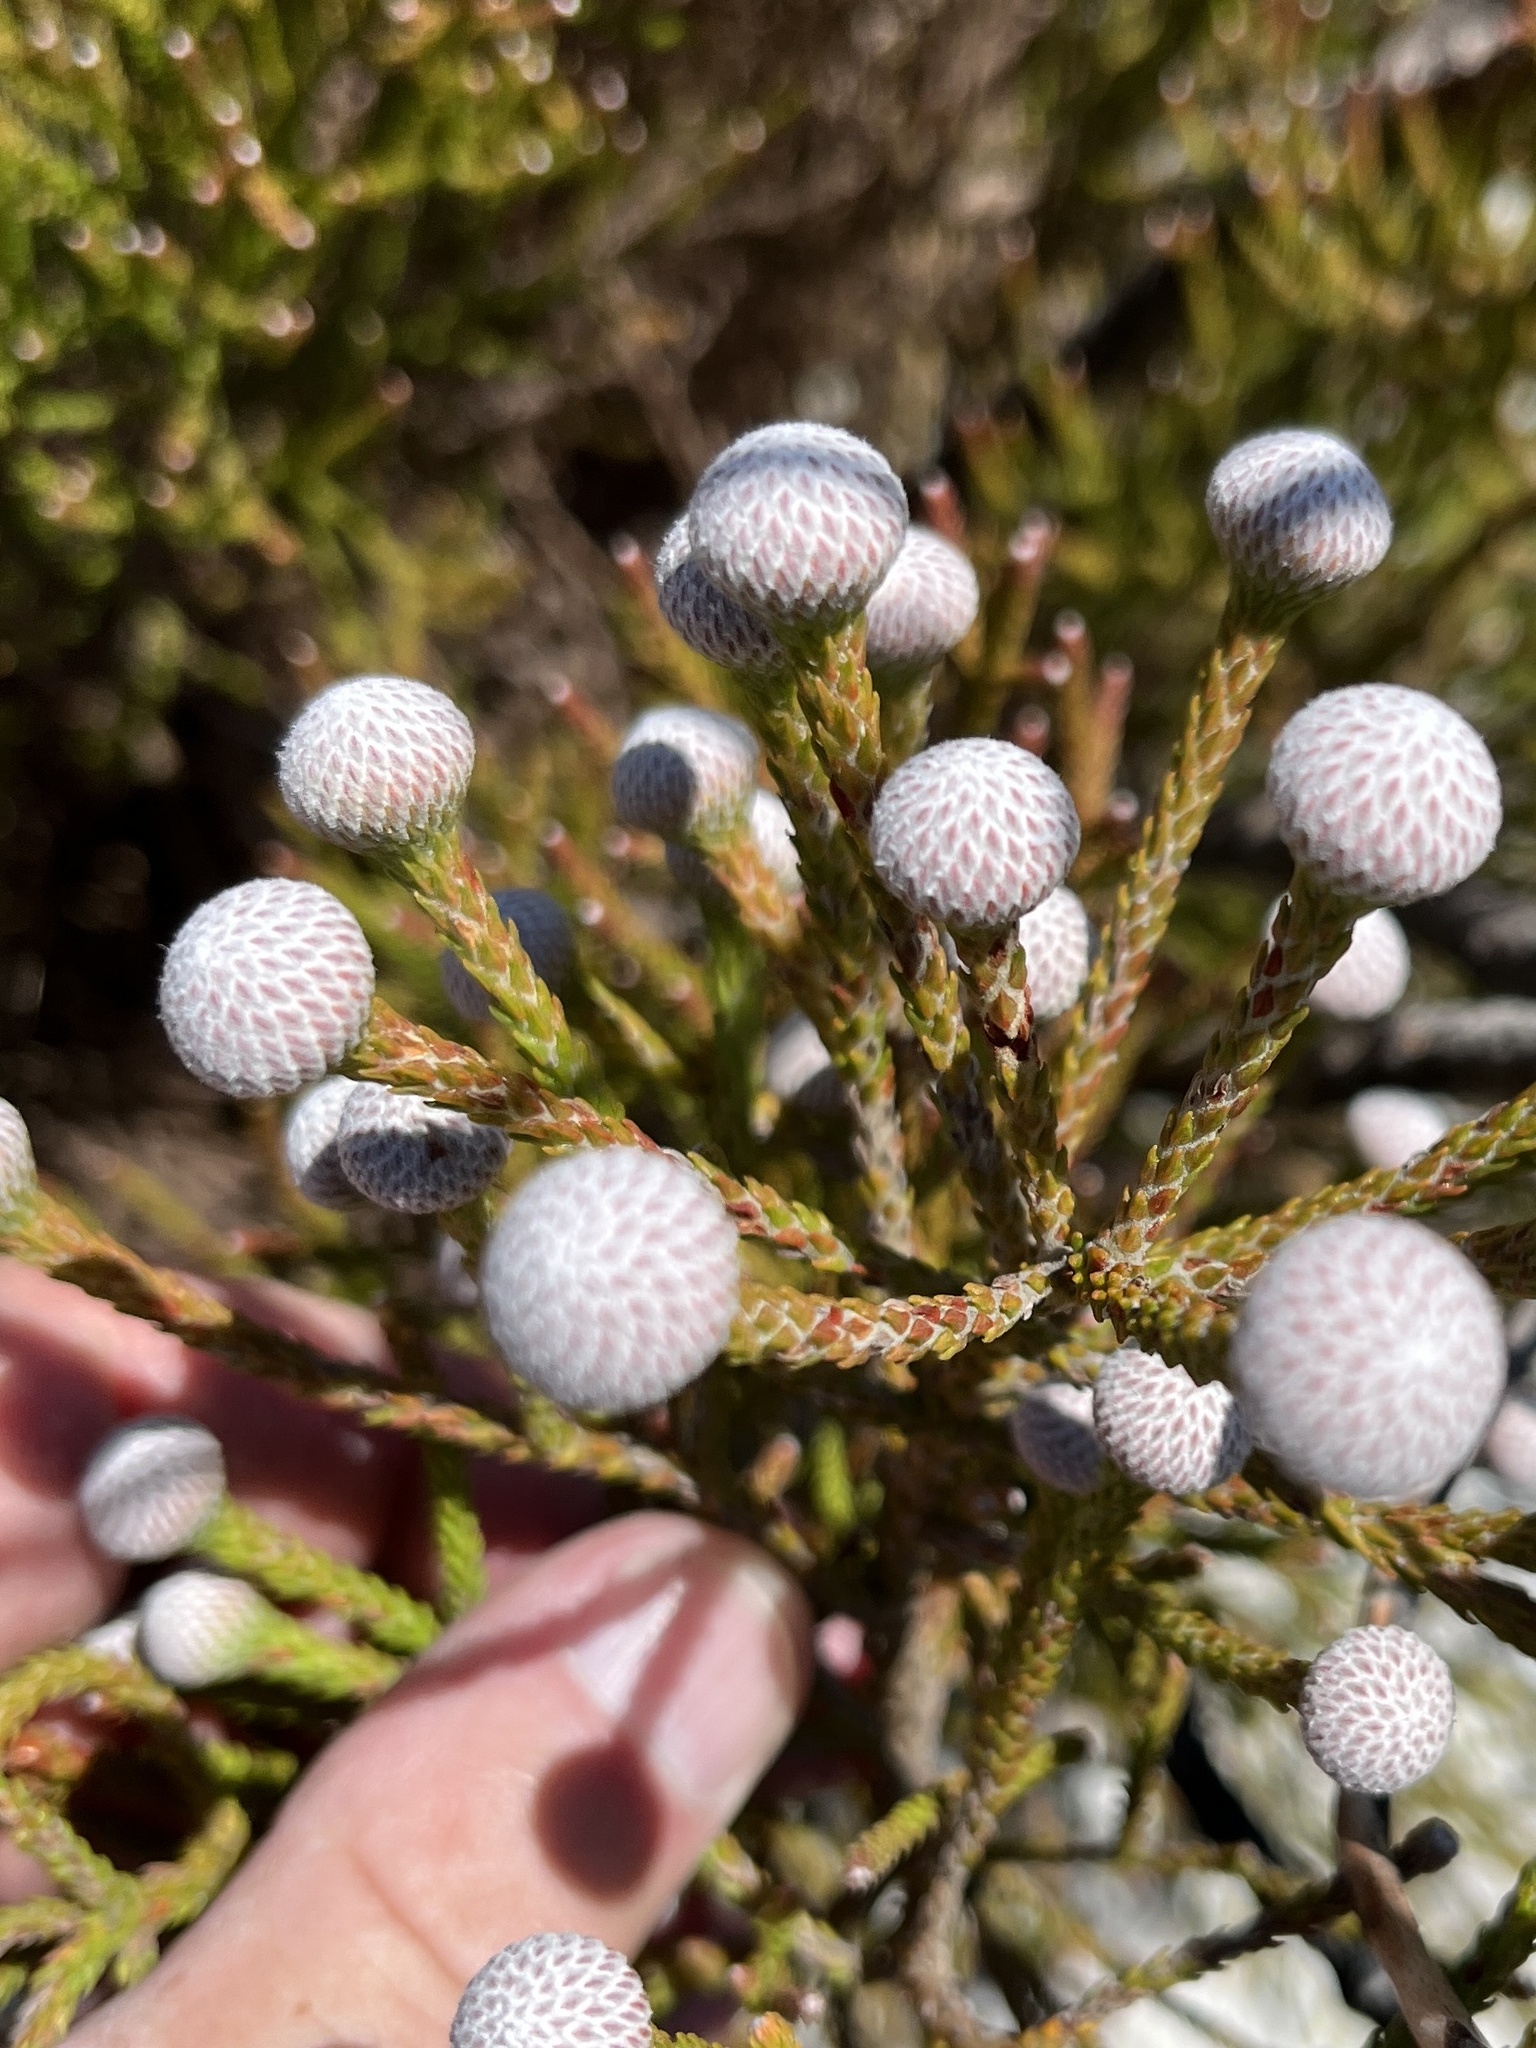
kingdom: Plantae
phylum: Tracheophyta
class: Magnoliopsida
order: Bruniales
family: Bruniaceae
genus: Brunia
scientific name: Brunia noduliflora
